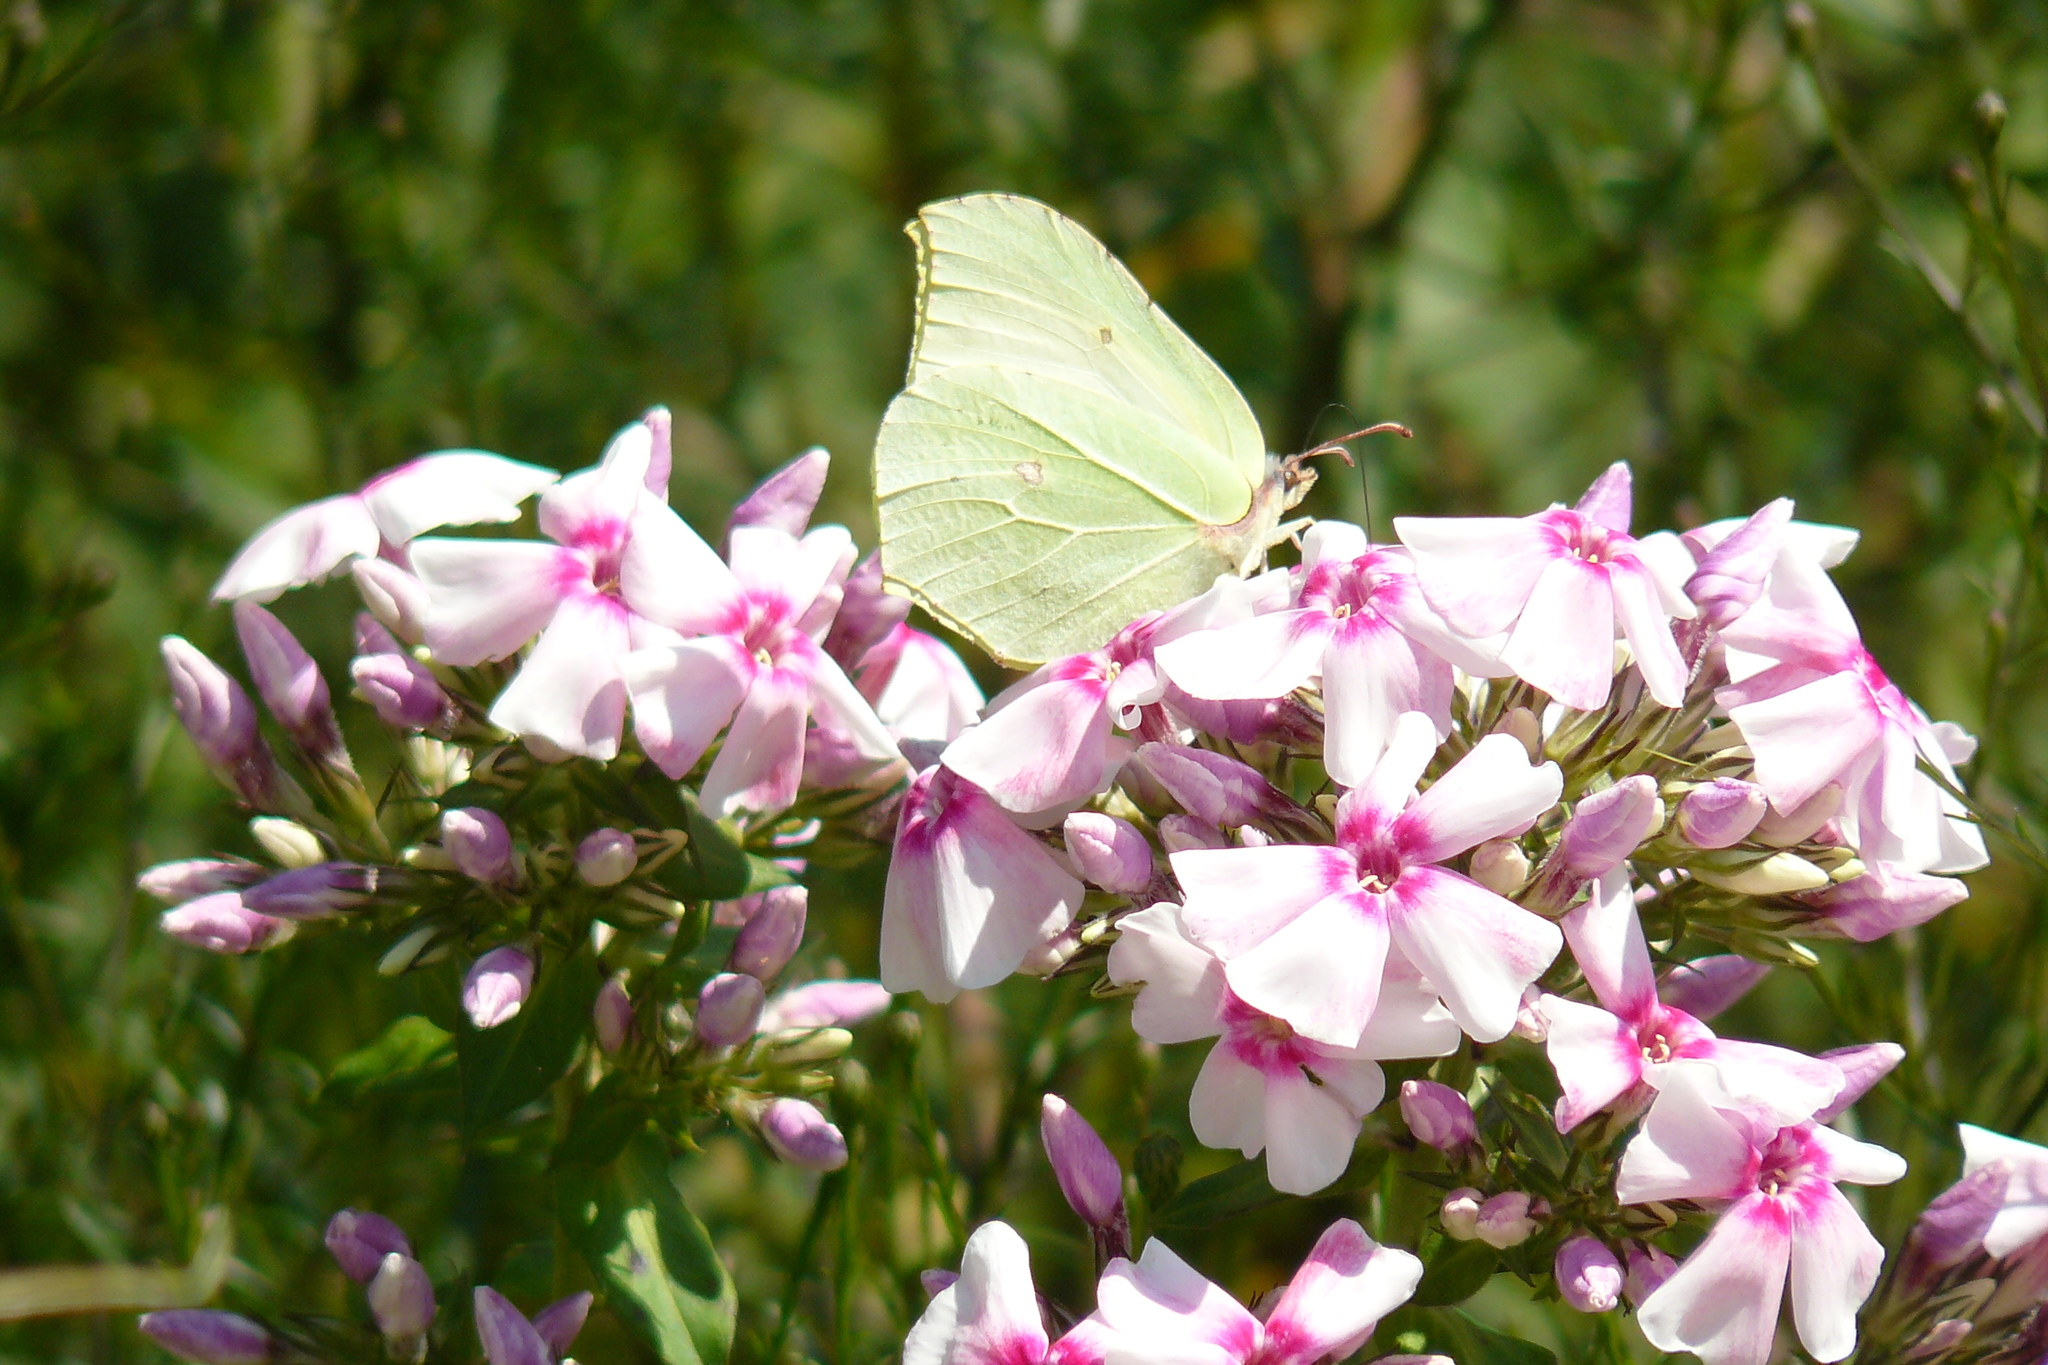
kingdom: Animalia
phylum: Arthropoda
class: Insecta
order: Lepidoptera
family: Pieridae
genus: Gonepteryx
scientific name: Gonepteryx rhamni
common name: Brimstone
